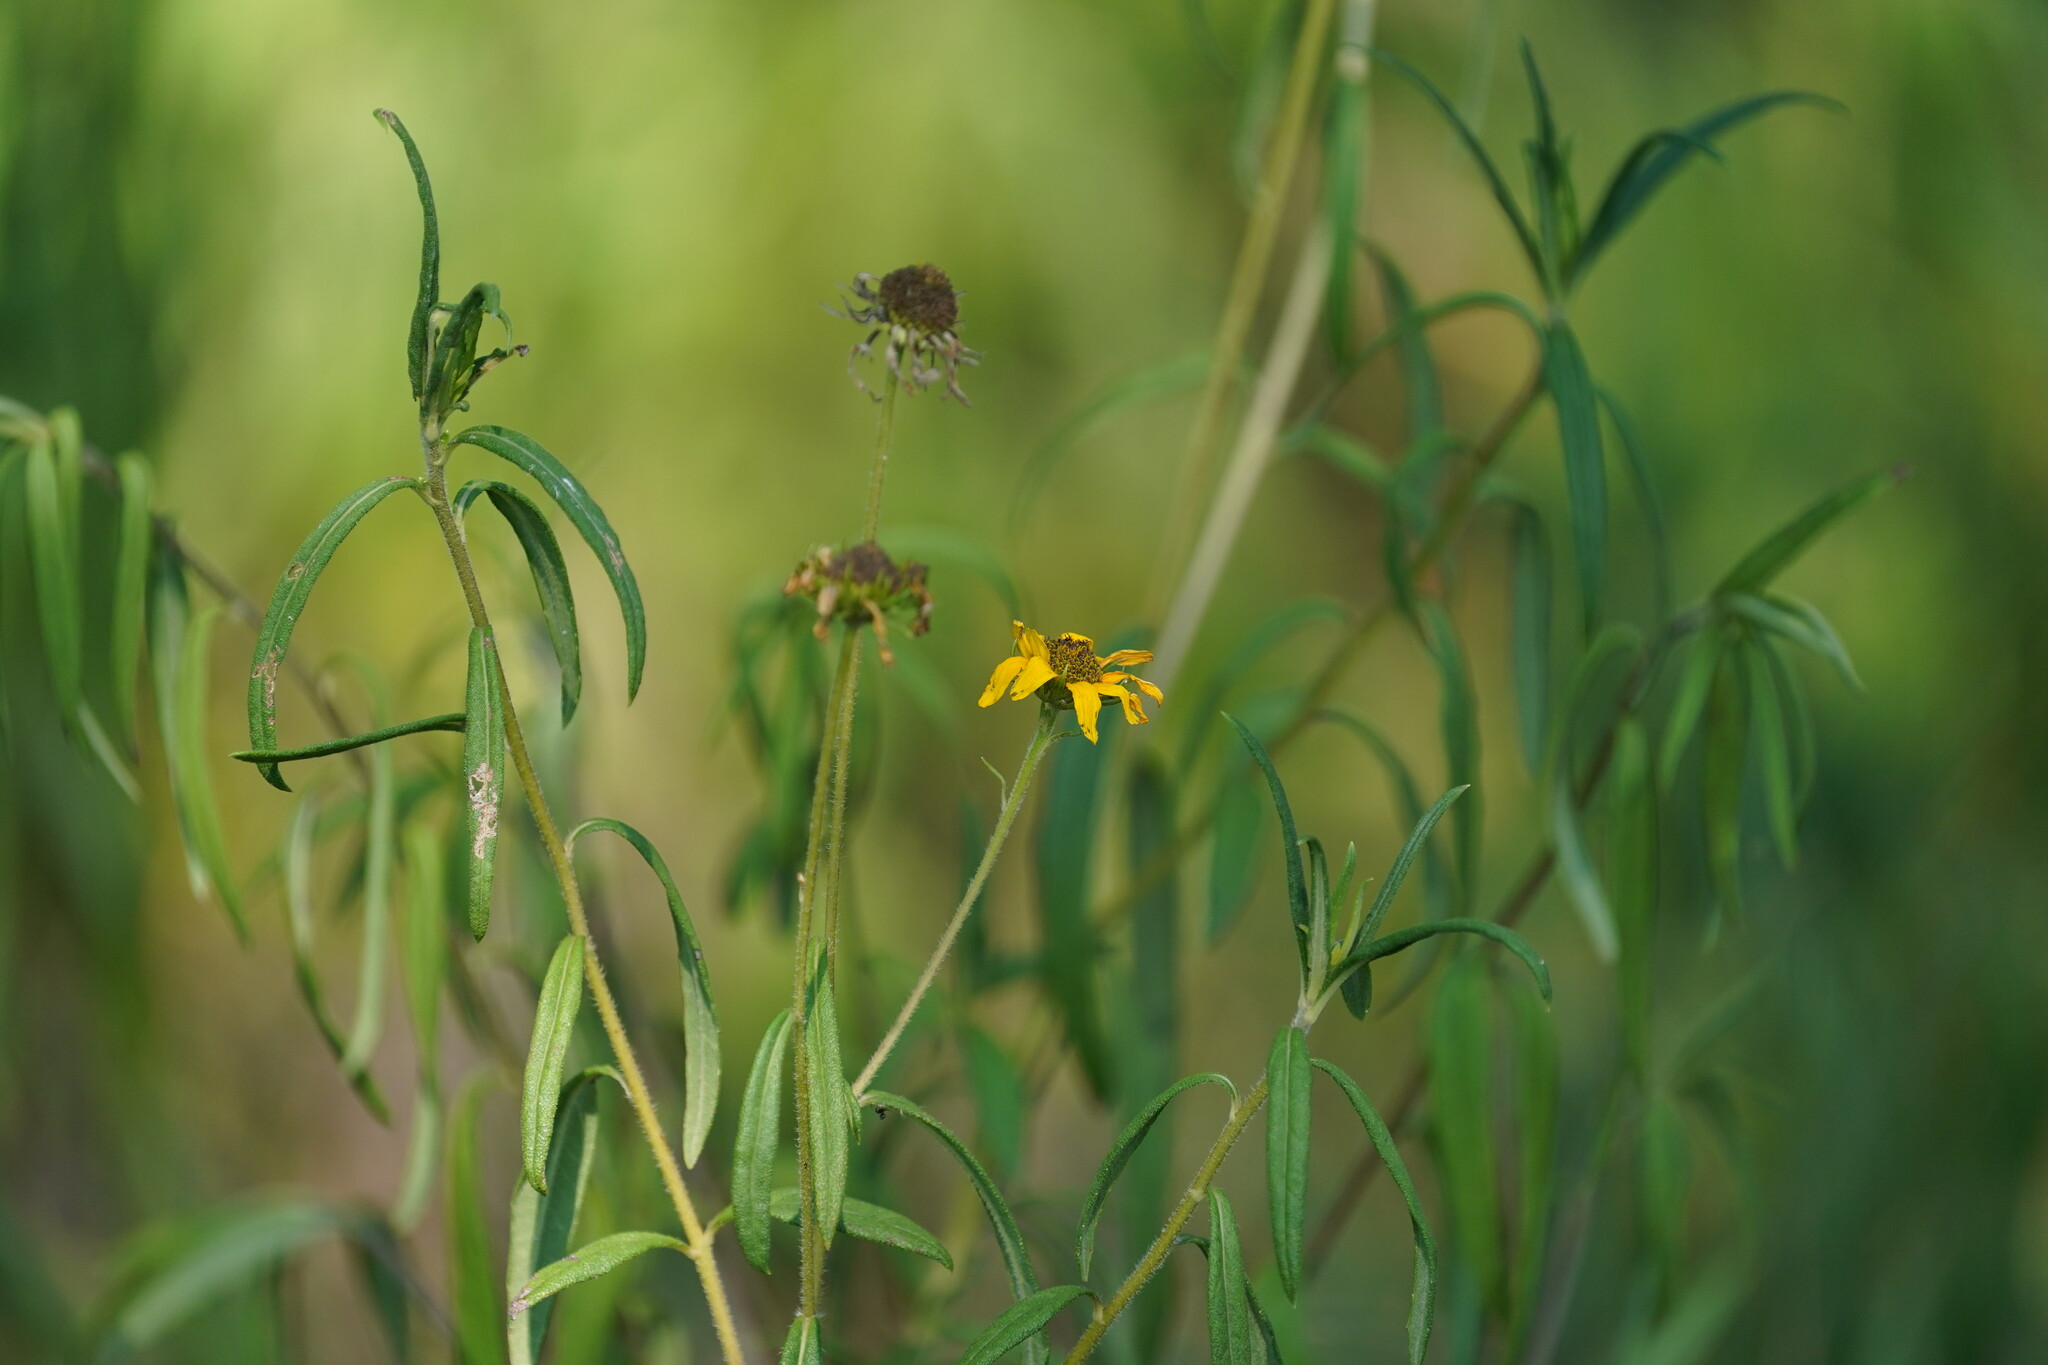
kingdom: Plantae
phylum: Tracheophyta
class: Magnoliopsida
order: Asterales
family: Asteraceae
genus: Helianthus
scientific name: Helianthus angustifolius
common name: Swamp sunflower
